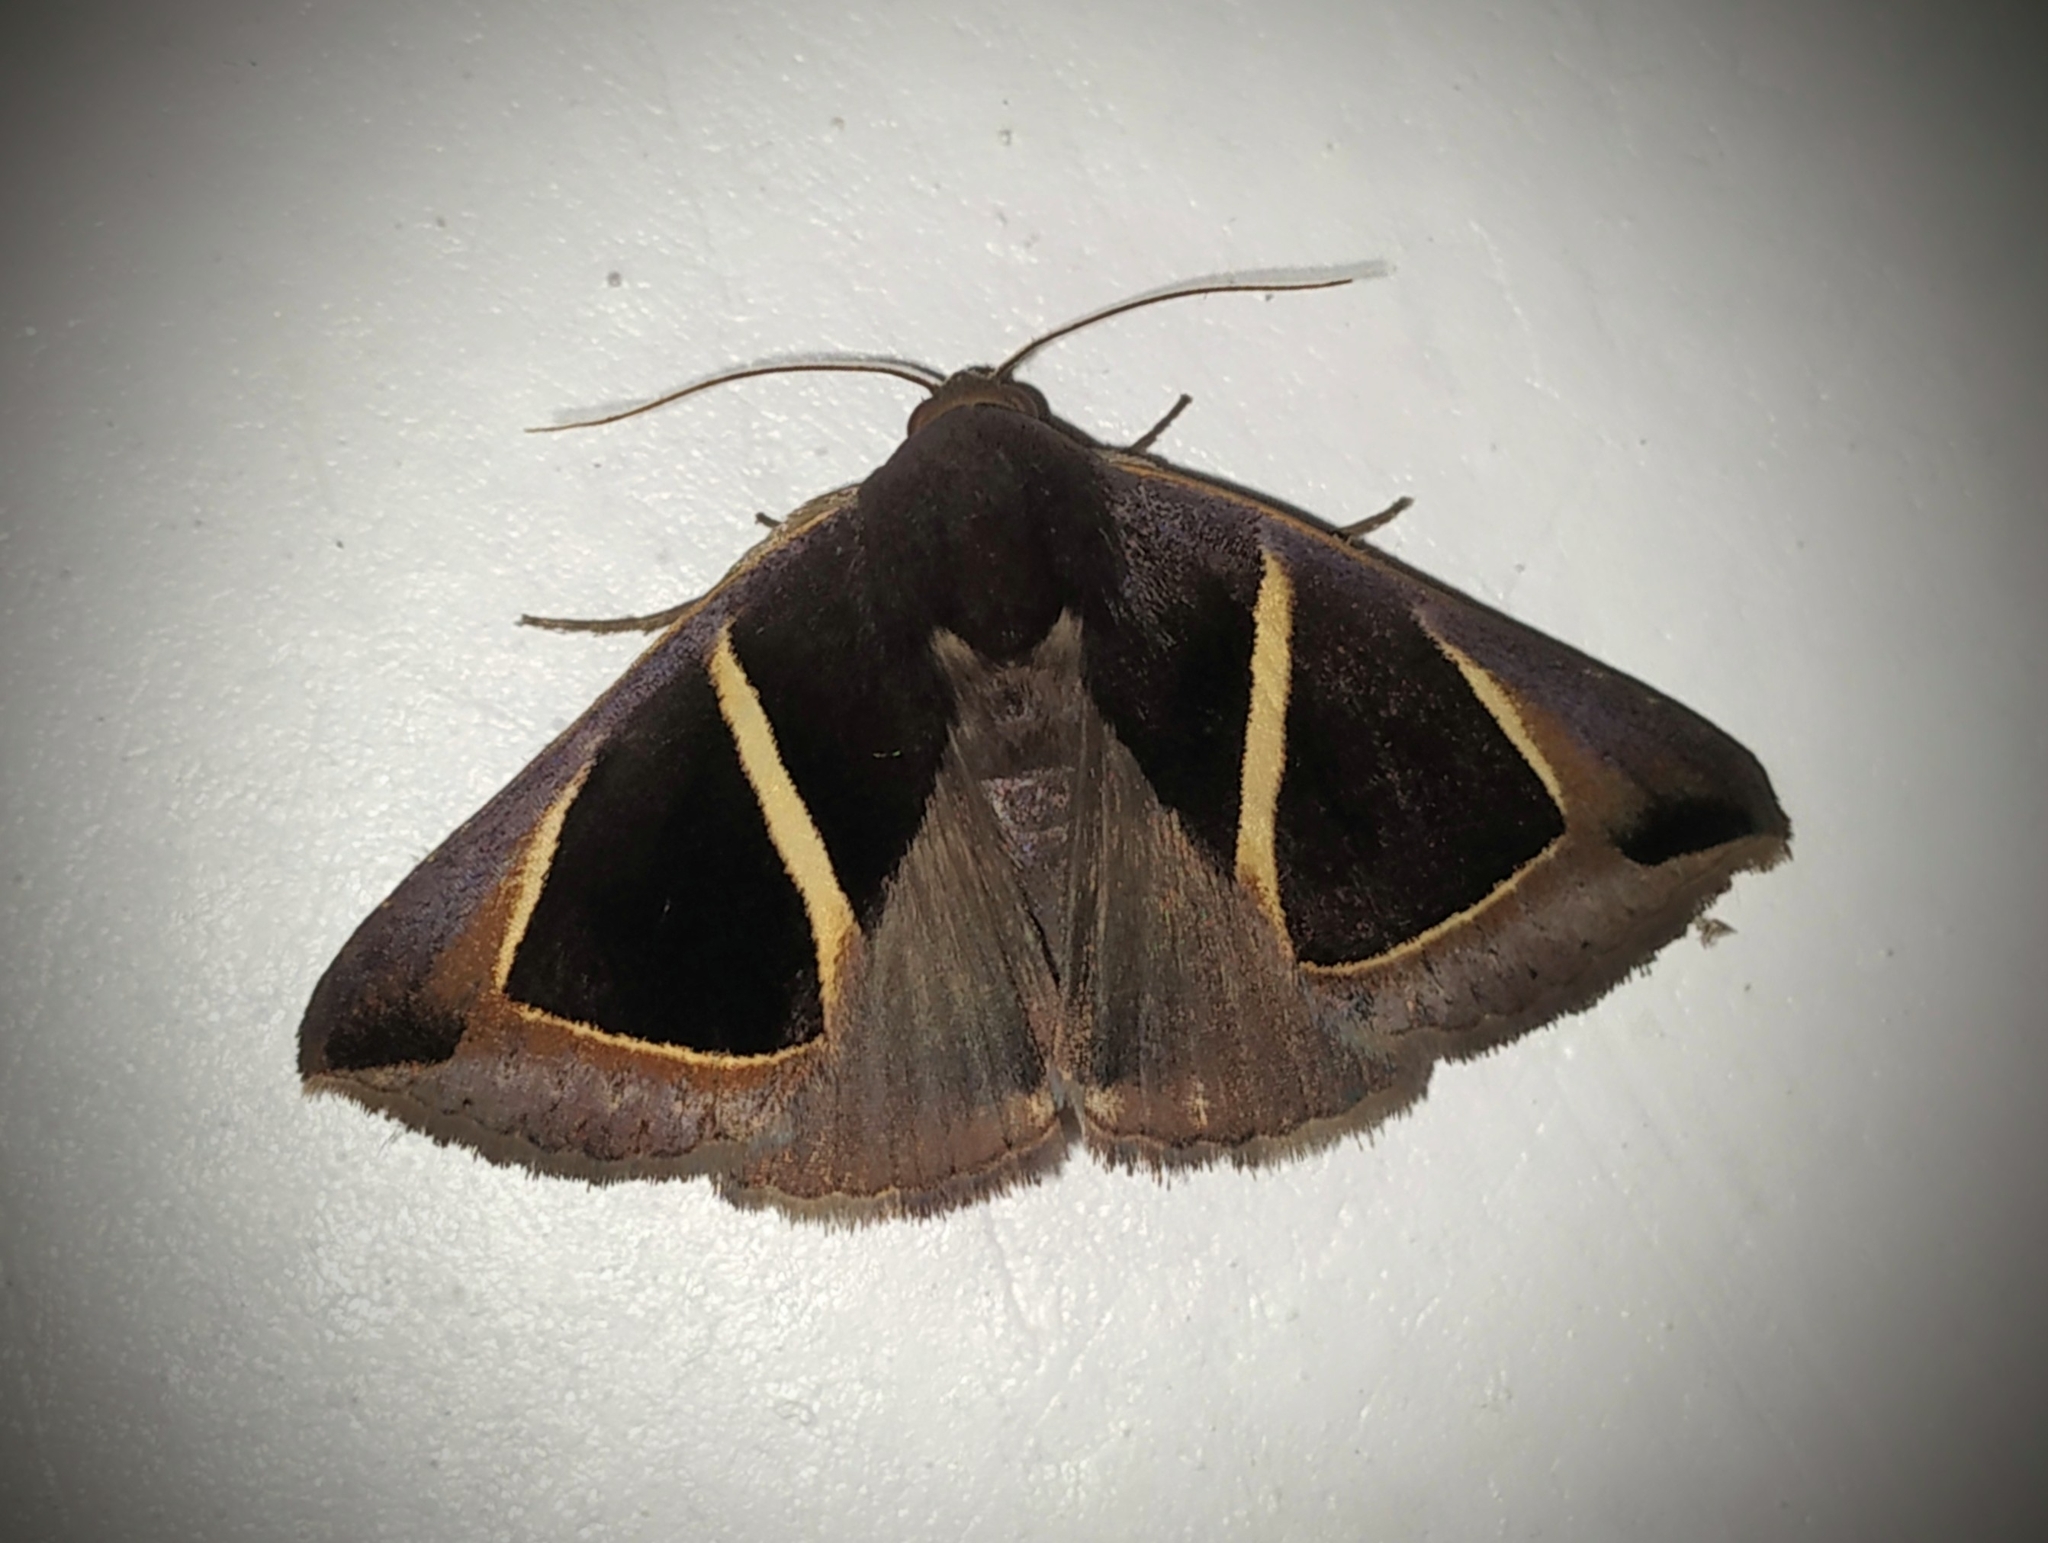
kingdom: Animalia
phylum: Arthropoda
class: Insecta
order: Lepidoptera
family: Erebidae
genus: Chalciope
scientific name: Chalciope mygdon
